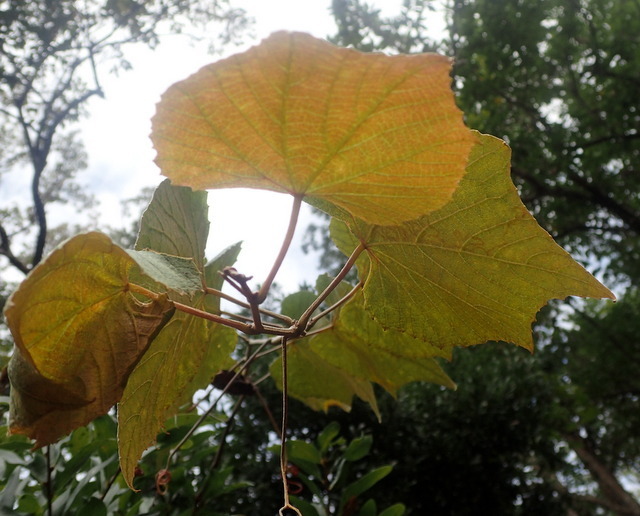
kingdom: Plantae
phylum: Tracheophyta
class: Magnoliopsida
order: Vitales
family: Vitaceae
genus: Vitis
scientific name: Vitis cinerea
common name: Ashy grape
